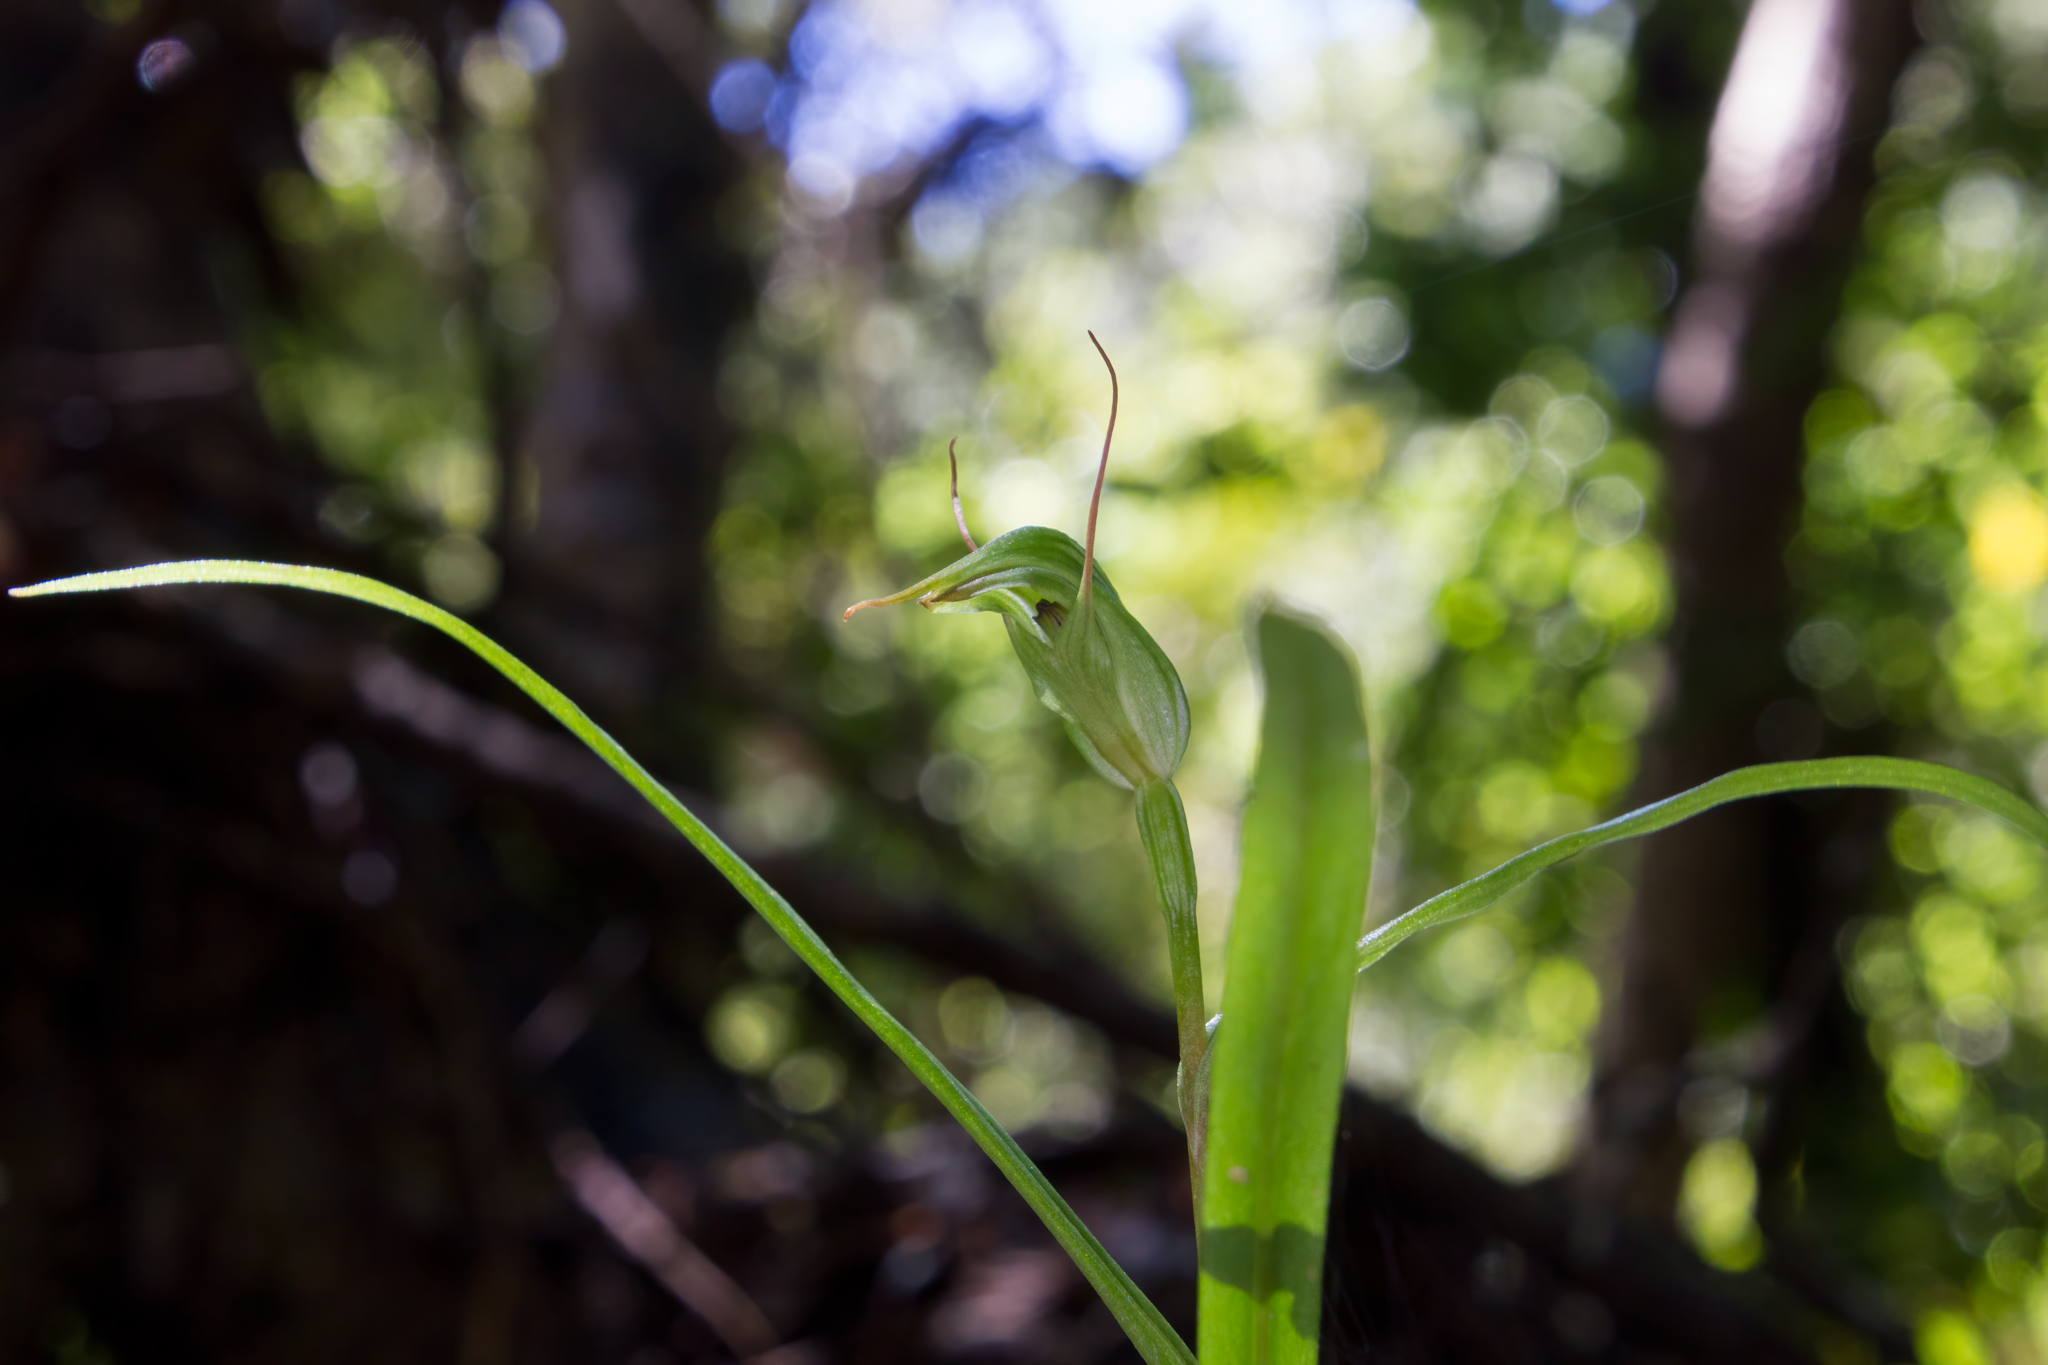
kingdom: Plantae
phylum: Tracheophyta
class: Liliopsida
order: Asparagales
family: Orchidaceae
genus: Pterostylis
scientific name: Pterostylis agathicola
